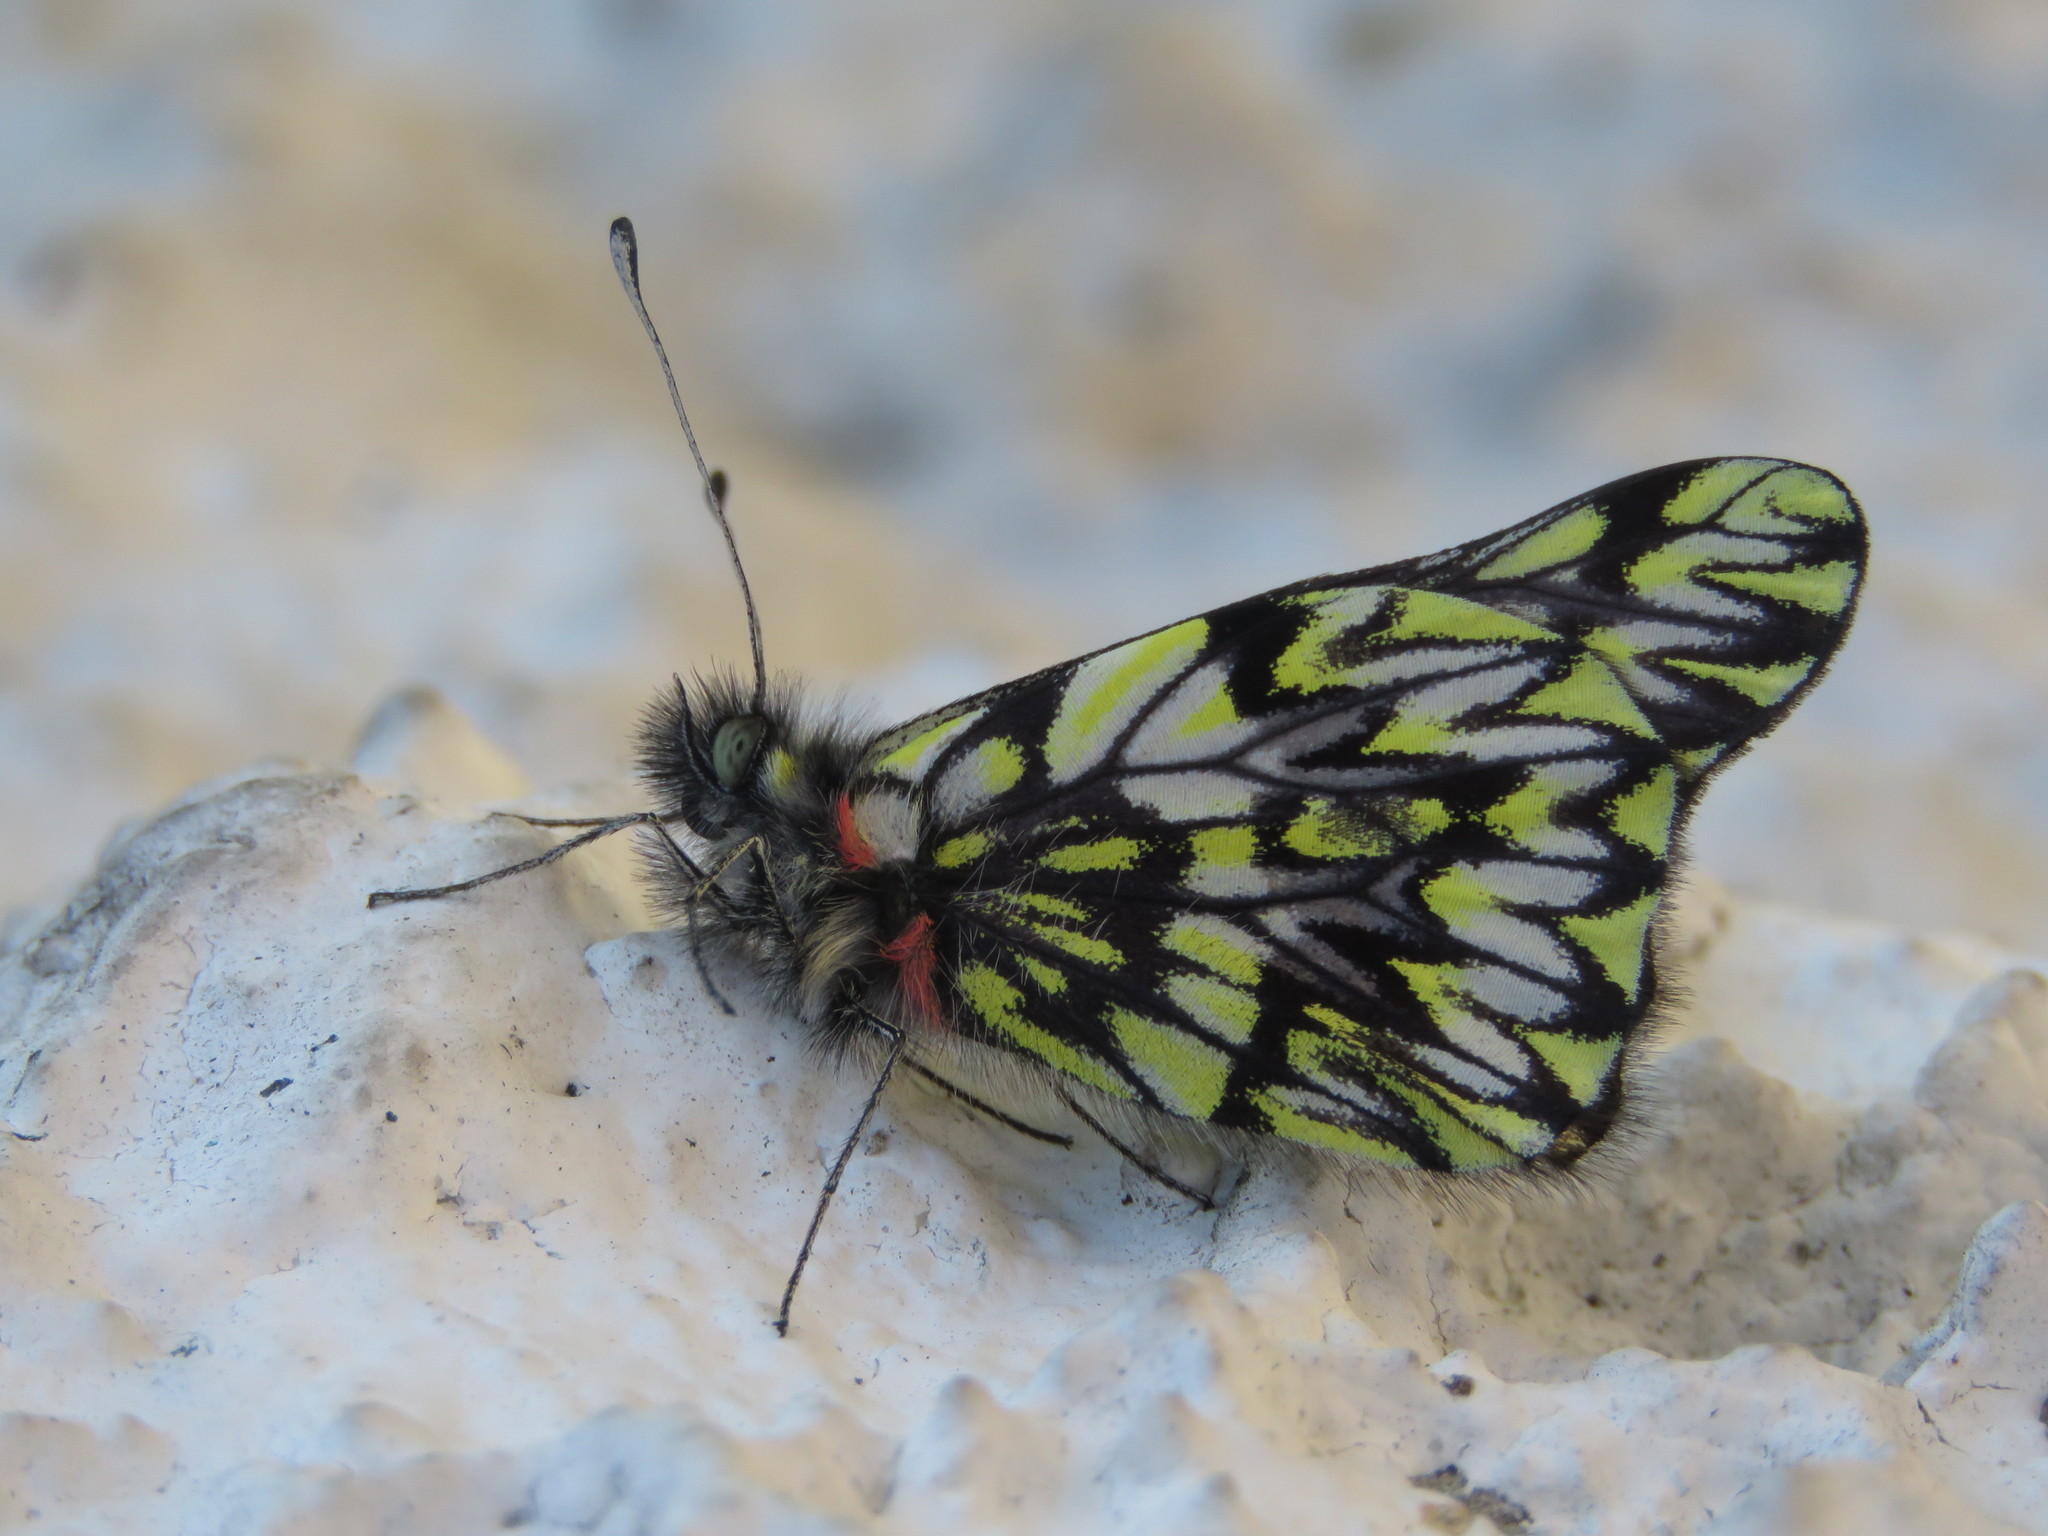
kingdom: Animalia
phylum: Arthropoda
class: Insecta
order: Lepidoptera
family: Pieridae
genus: Catasticta
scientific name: Catasticta philais
